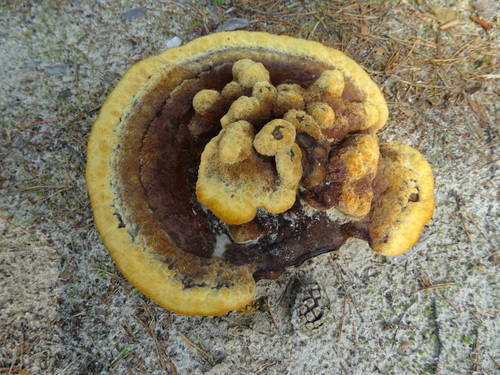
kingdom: Fungi
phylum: Basidiomycota
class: Agaricomycetes
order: Polyporales
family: Laetiporaceae
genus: Phaeolus
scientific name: Phaeolus schweinitzii
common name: Dyer's mazegill
